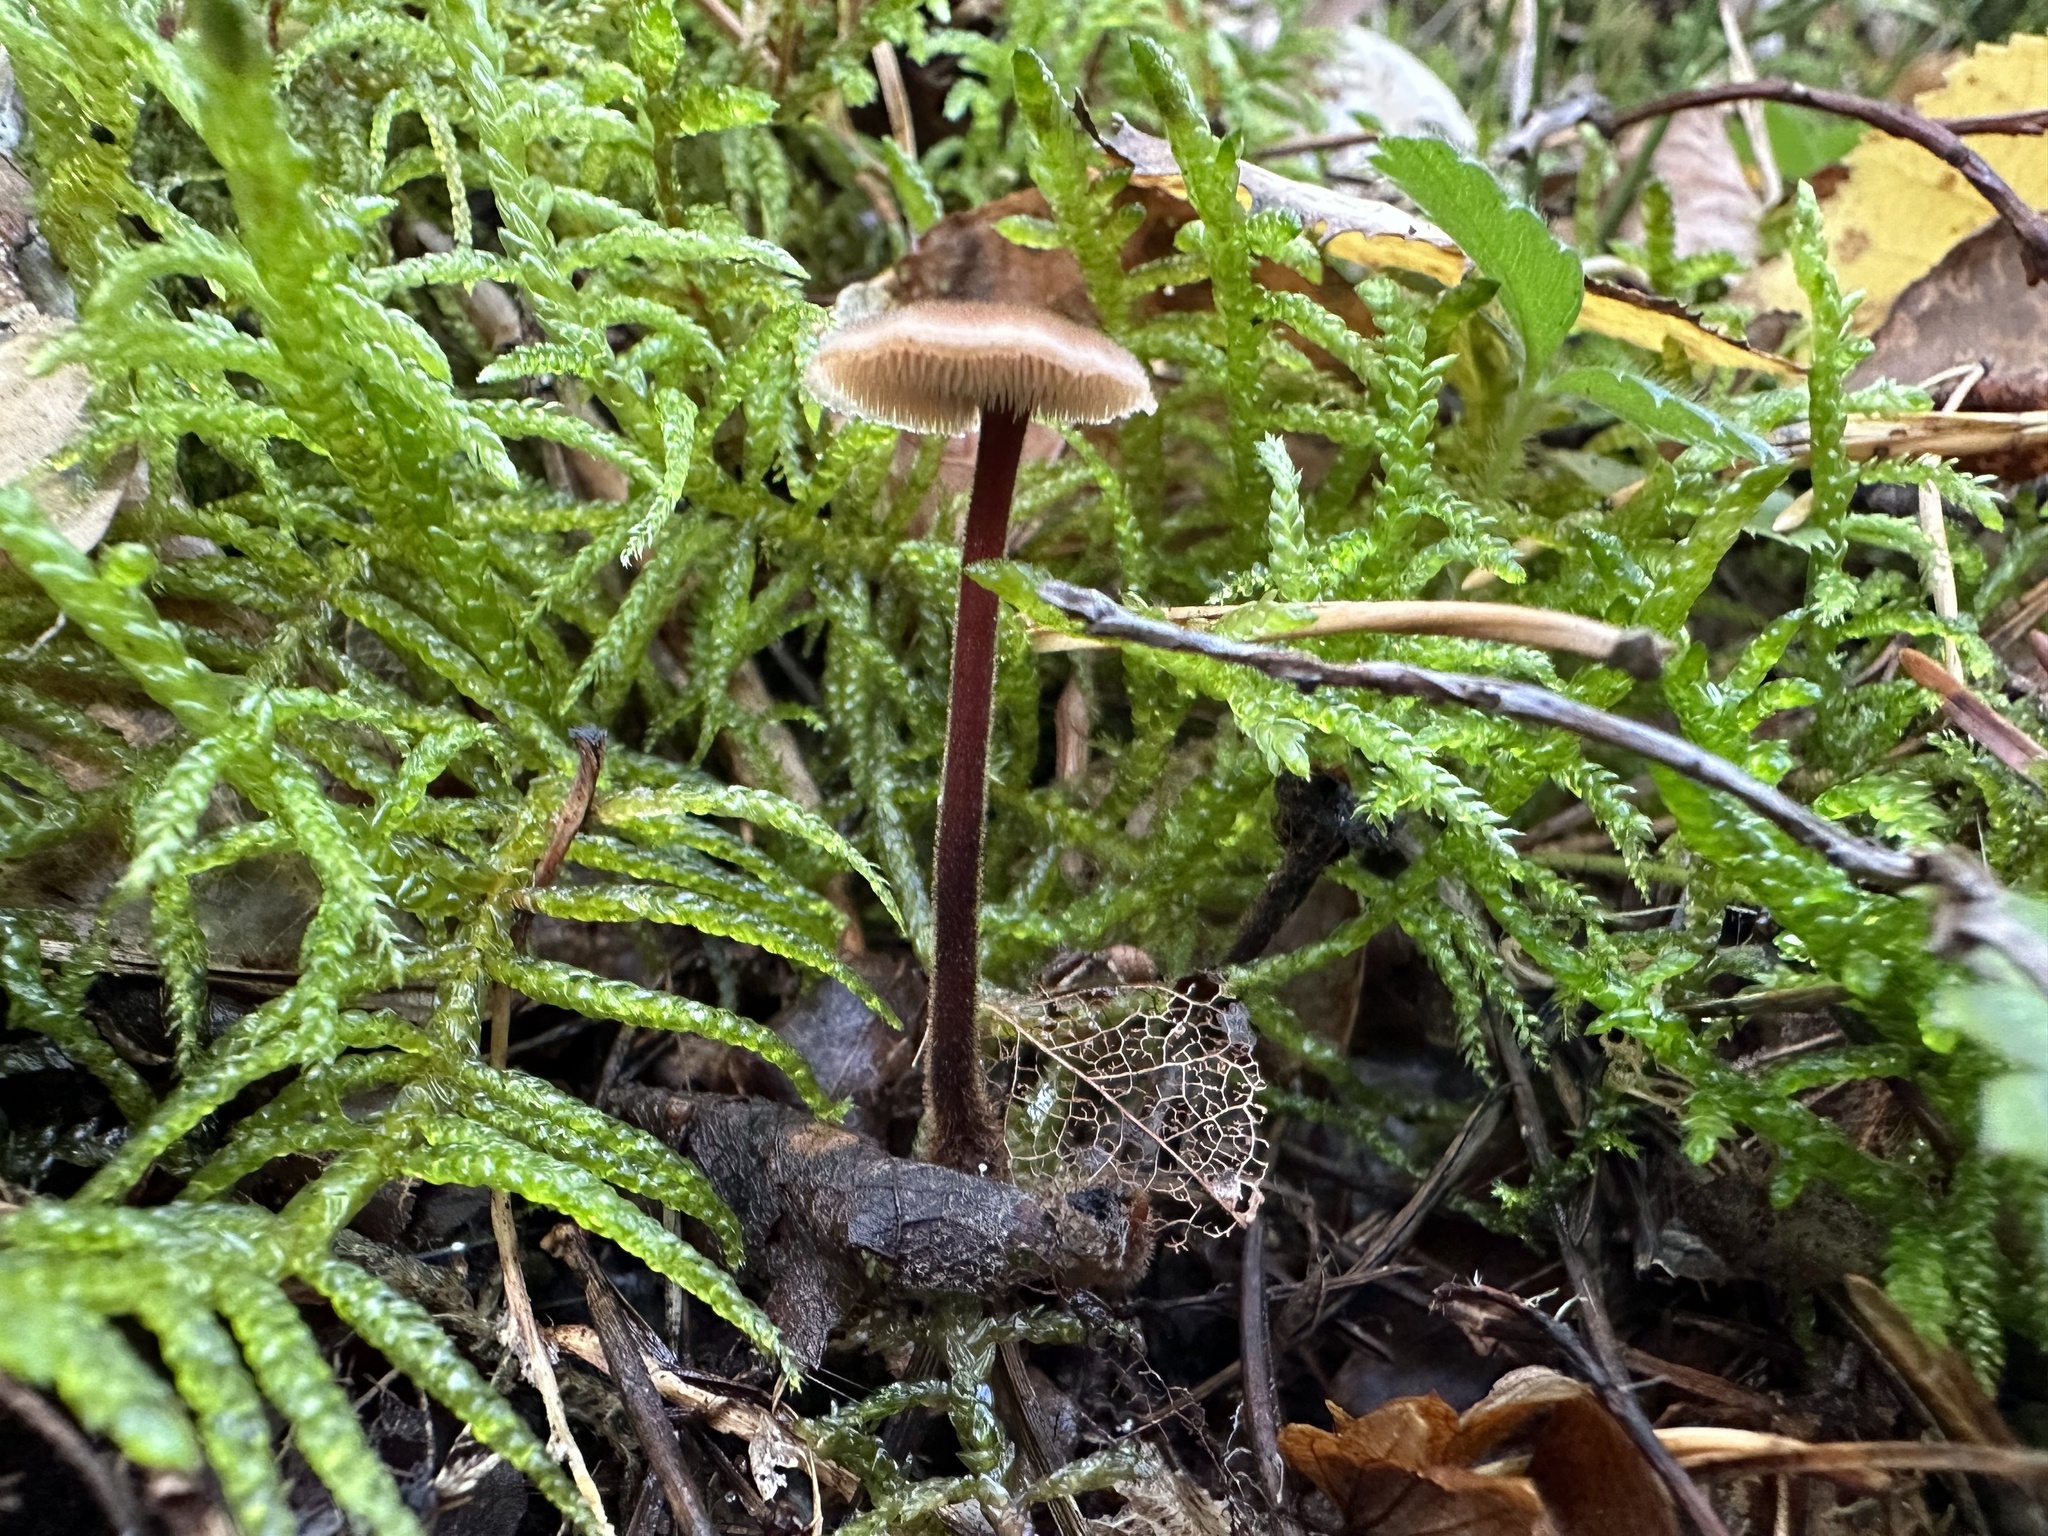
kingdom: Fungi
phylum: Basidiomycota
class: Agaricomycetes
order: Russulales
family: Auriscalpiaceae
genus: Auriscalpium
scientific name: Auriscalpium vulgare
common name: Earpick fungus
